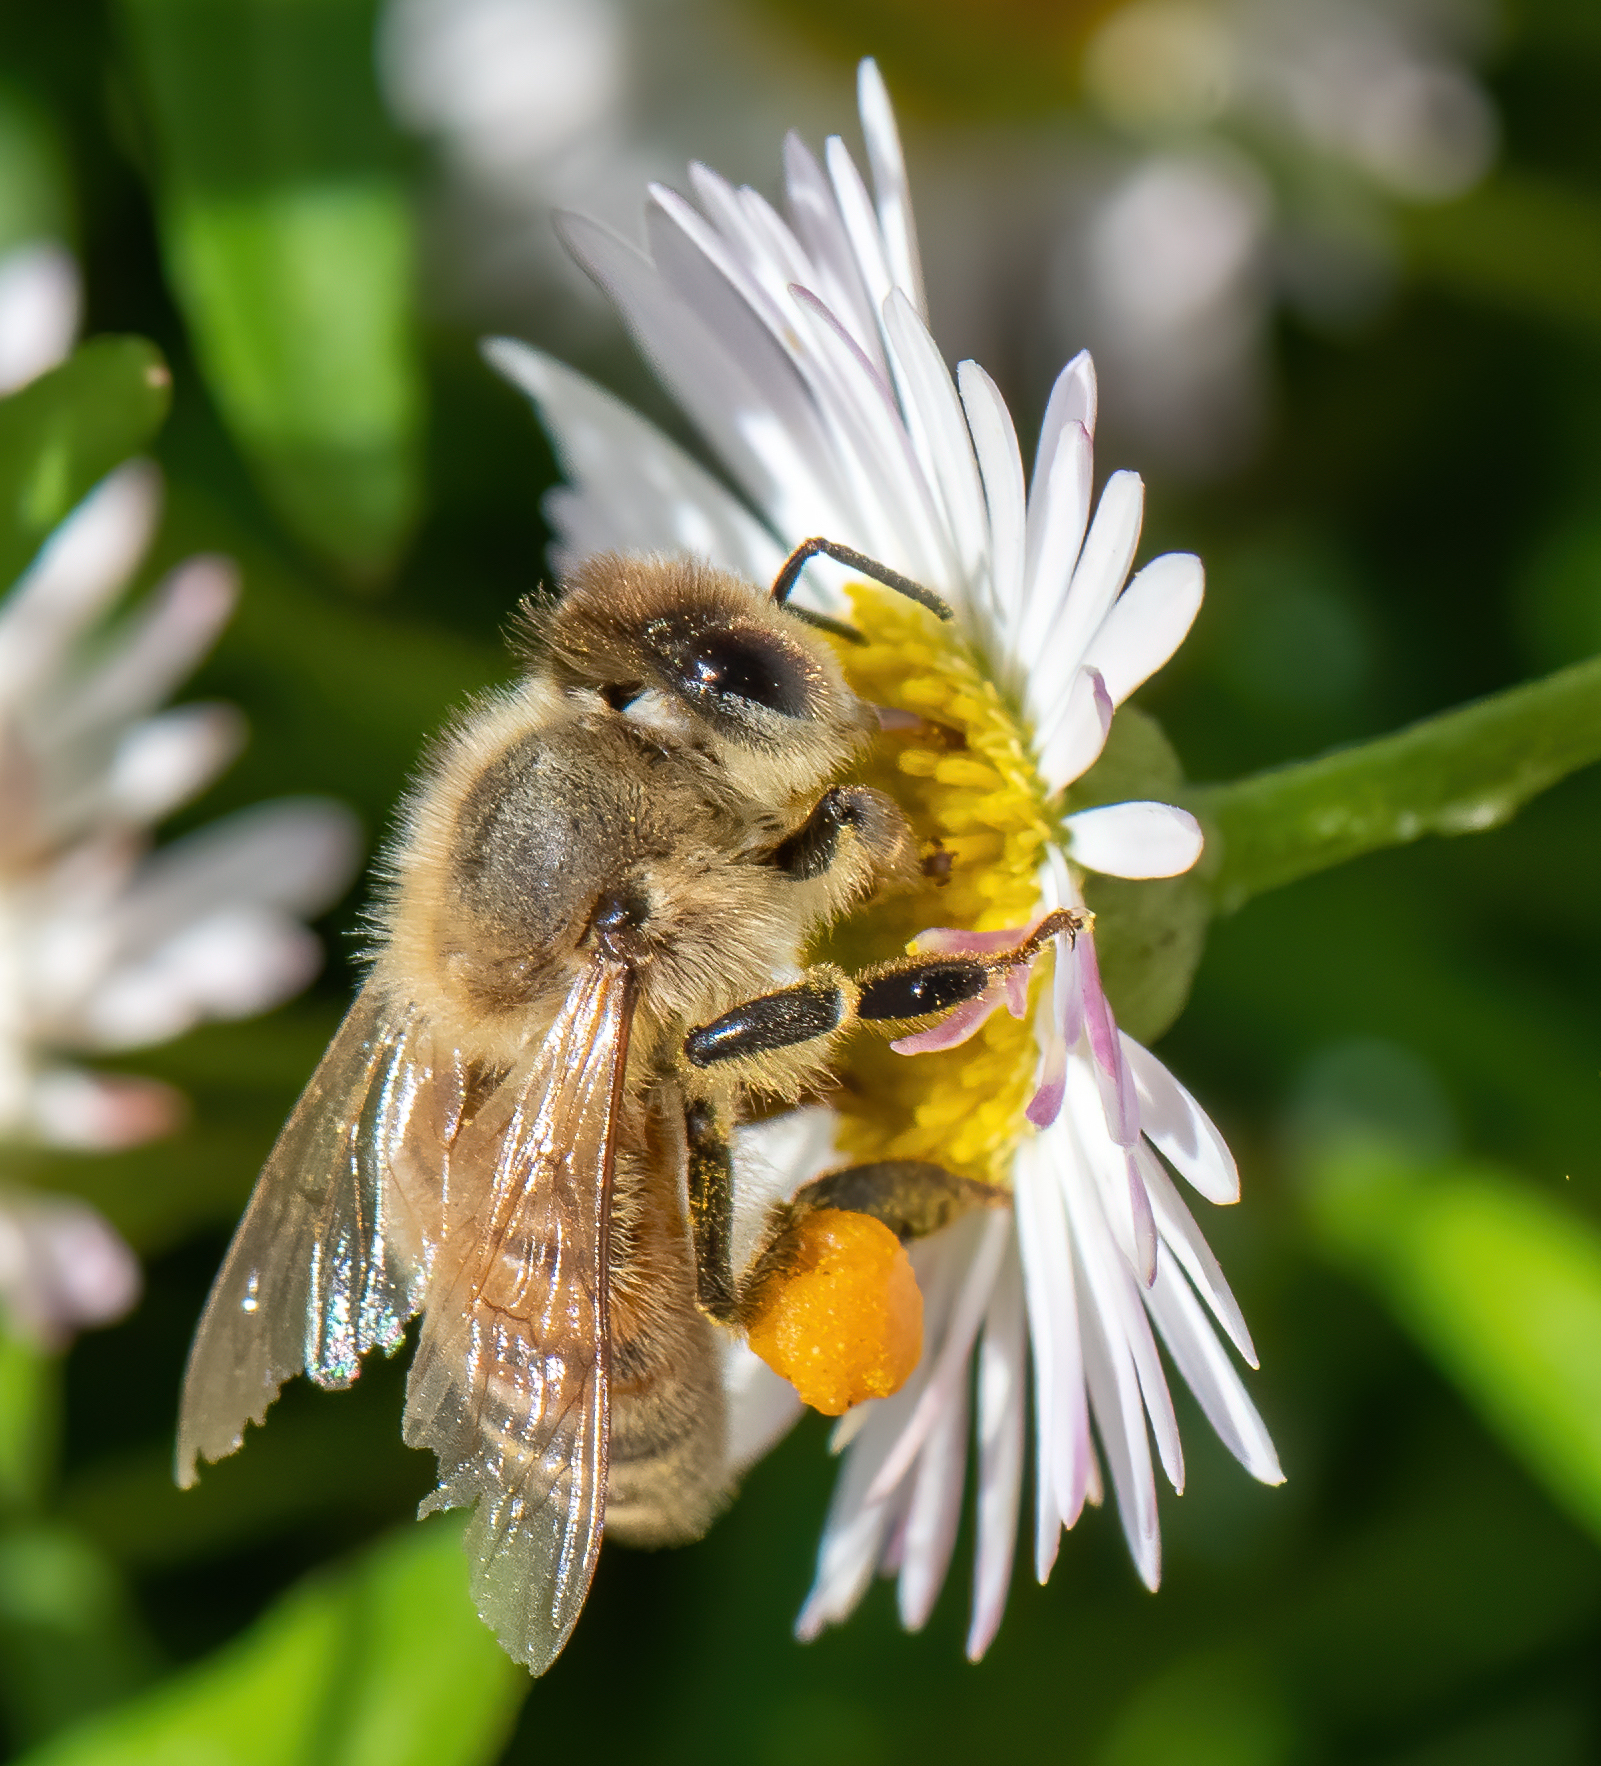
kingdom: Animalia
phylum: Arthropoda
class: Insecta
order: Hymenoptera
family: Apidae
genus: Apis
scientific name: Apis mellifera
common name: Honey bee
